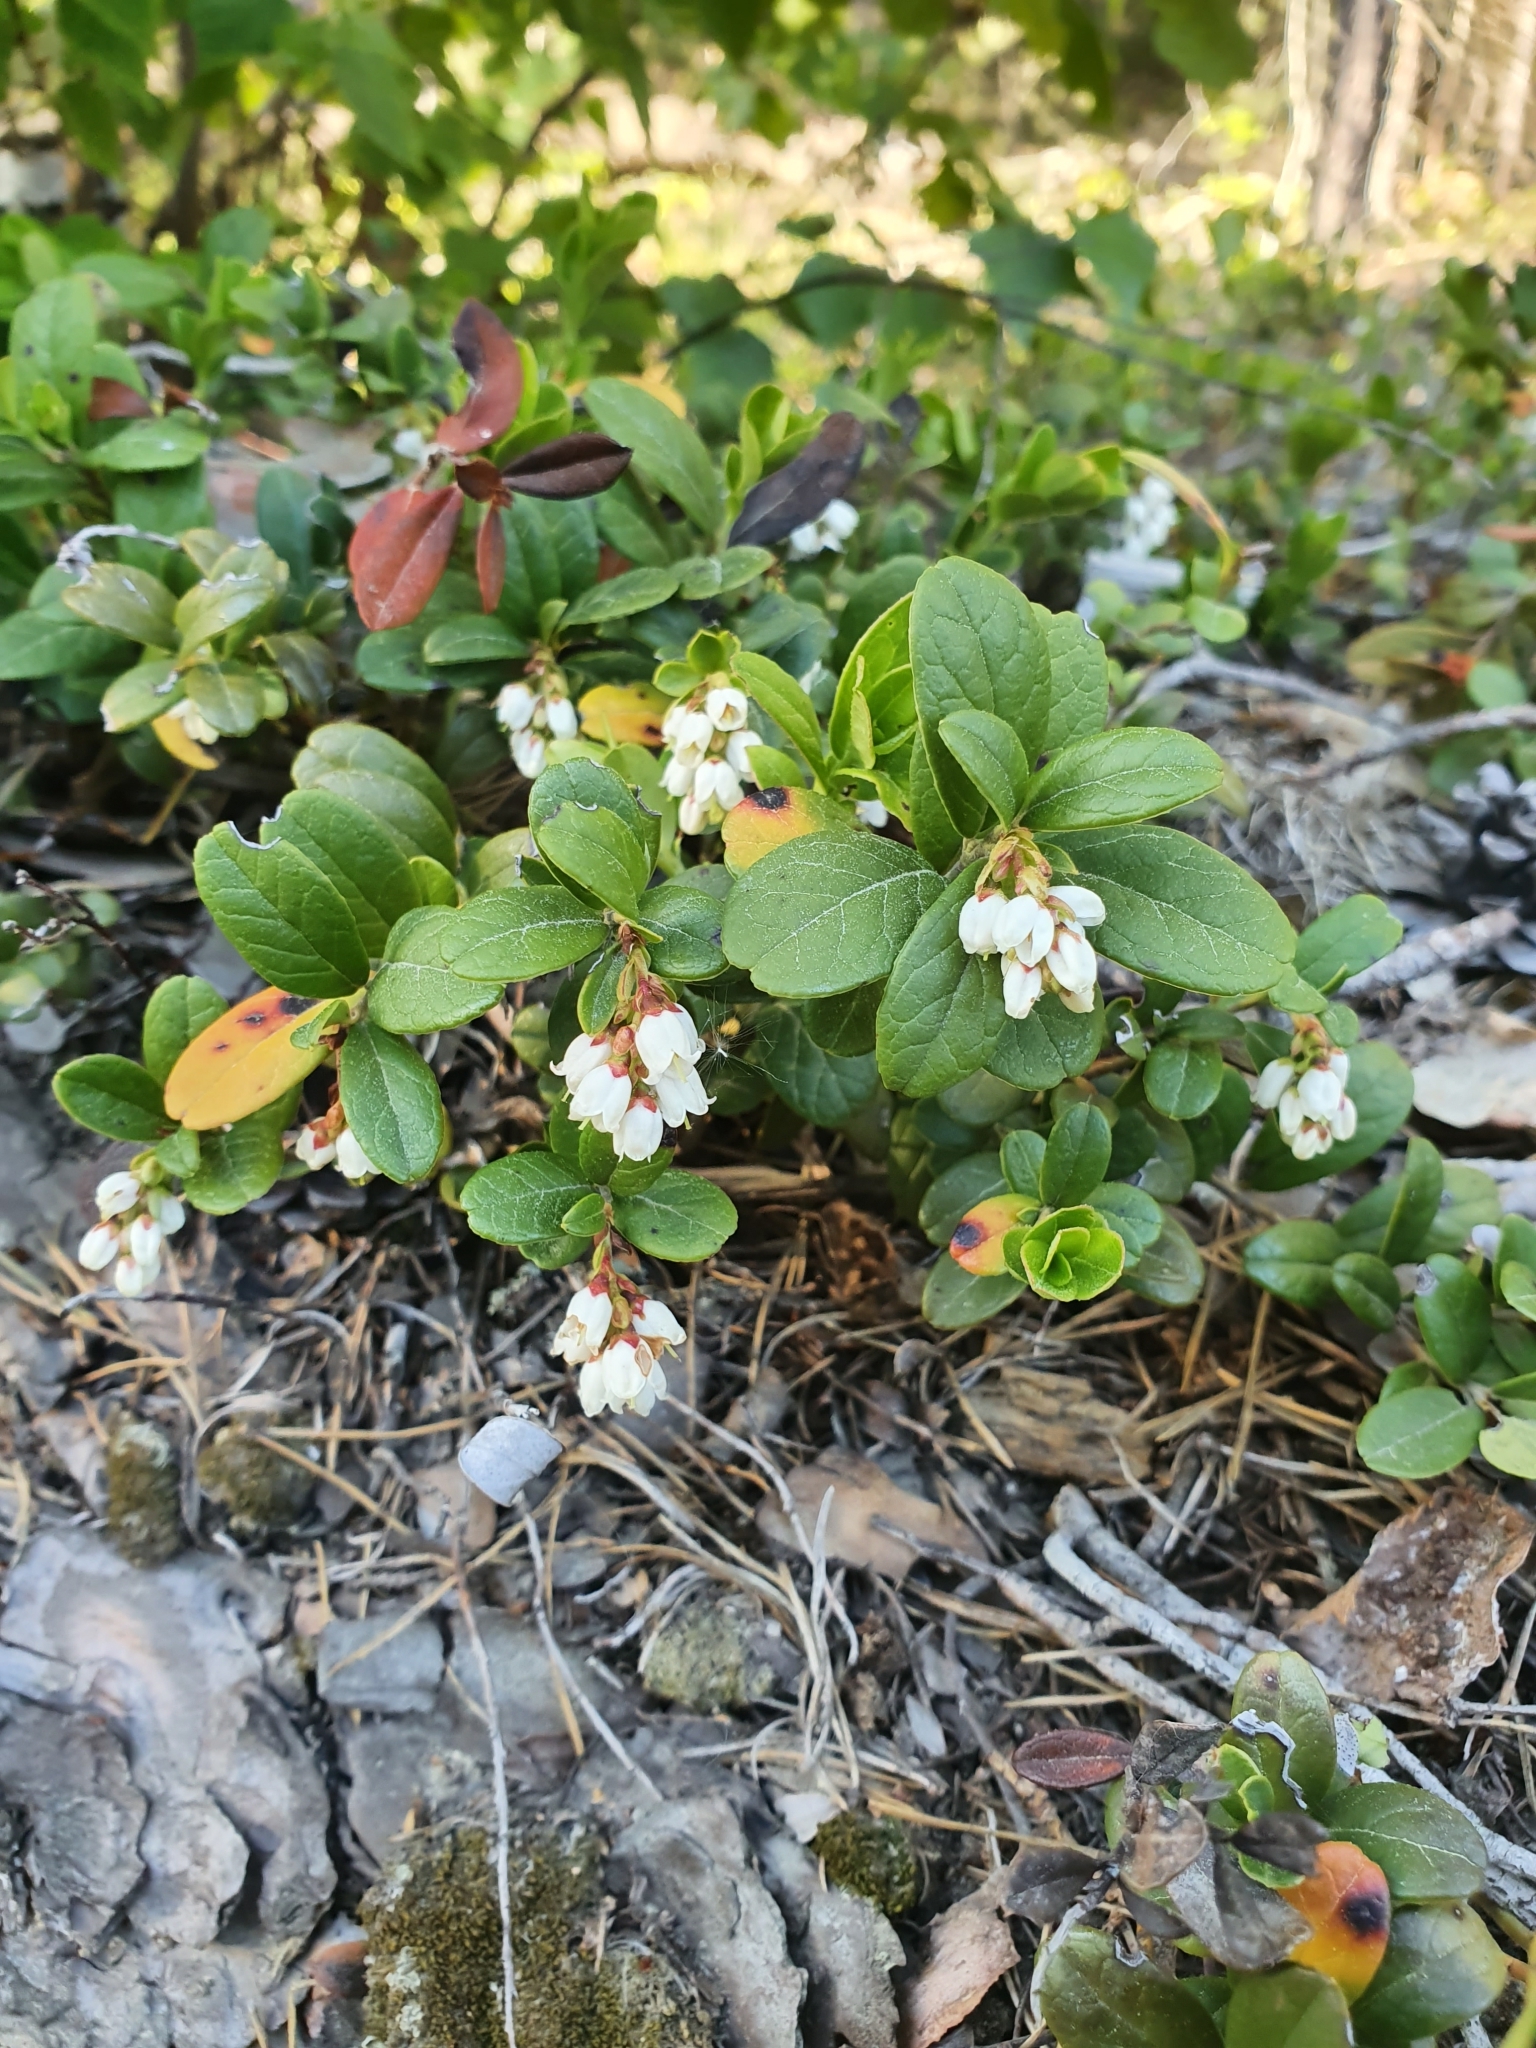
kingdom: Plantae
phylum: Tracheophyta
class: Magnoliopsida
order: Ericales
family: Ericaceae
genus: Vaccinium
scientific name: Vaccinium vitis-idaea
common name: Cowberry
